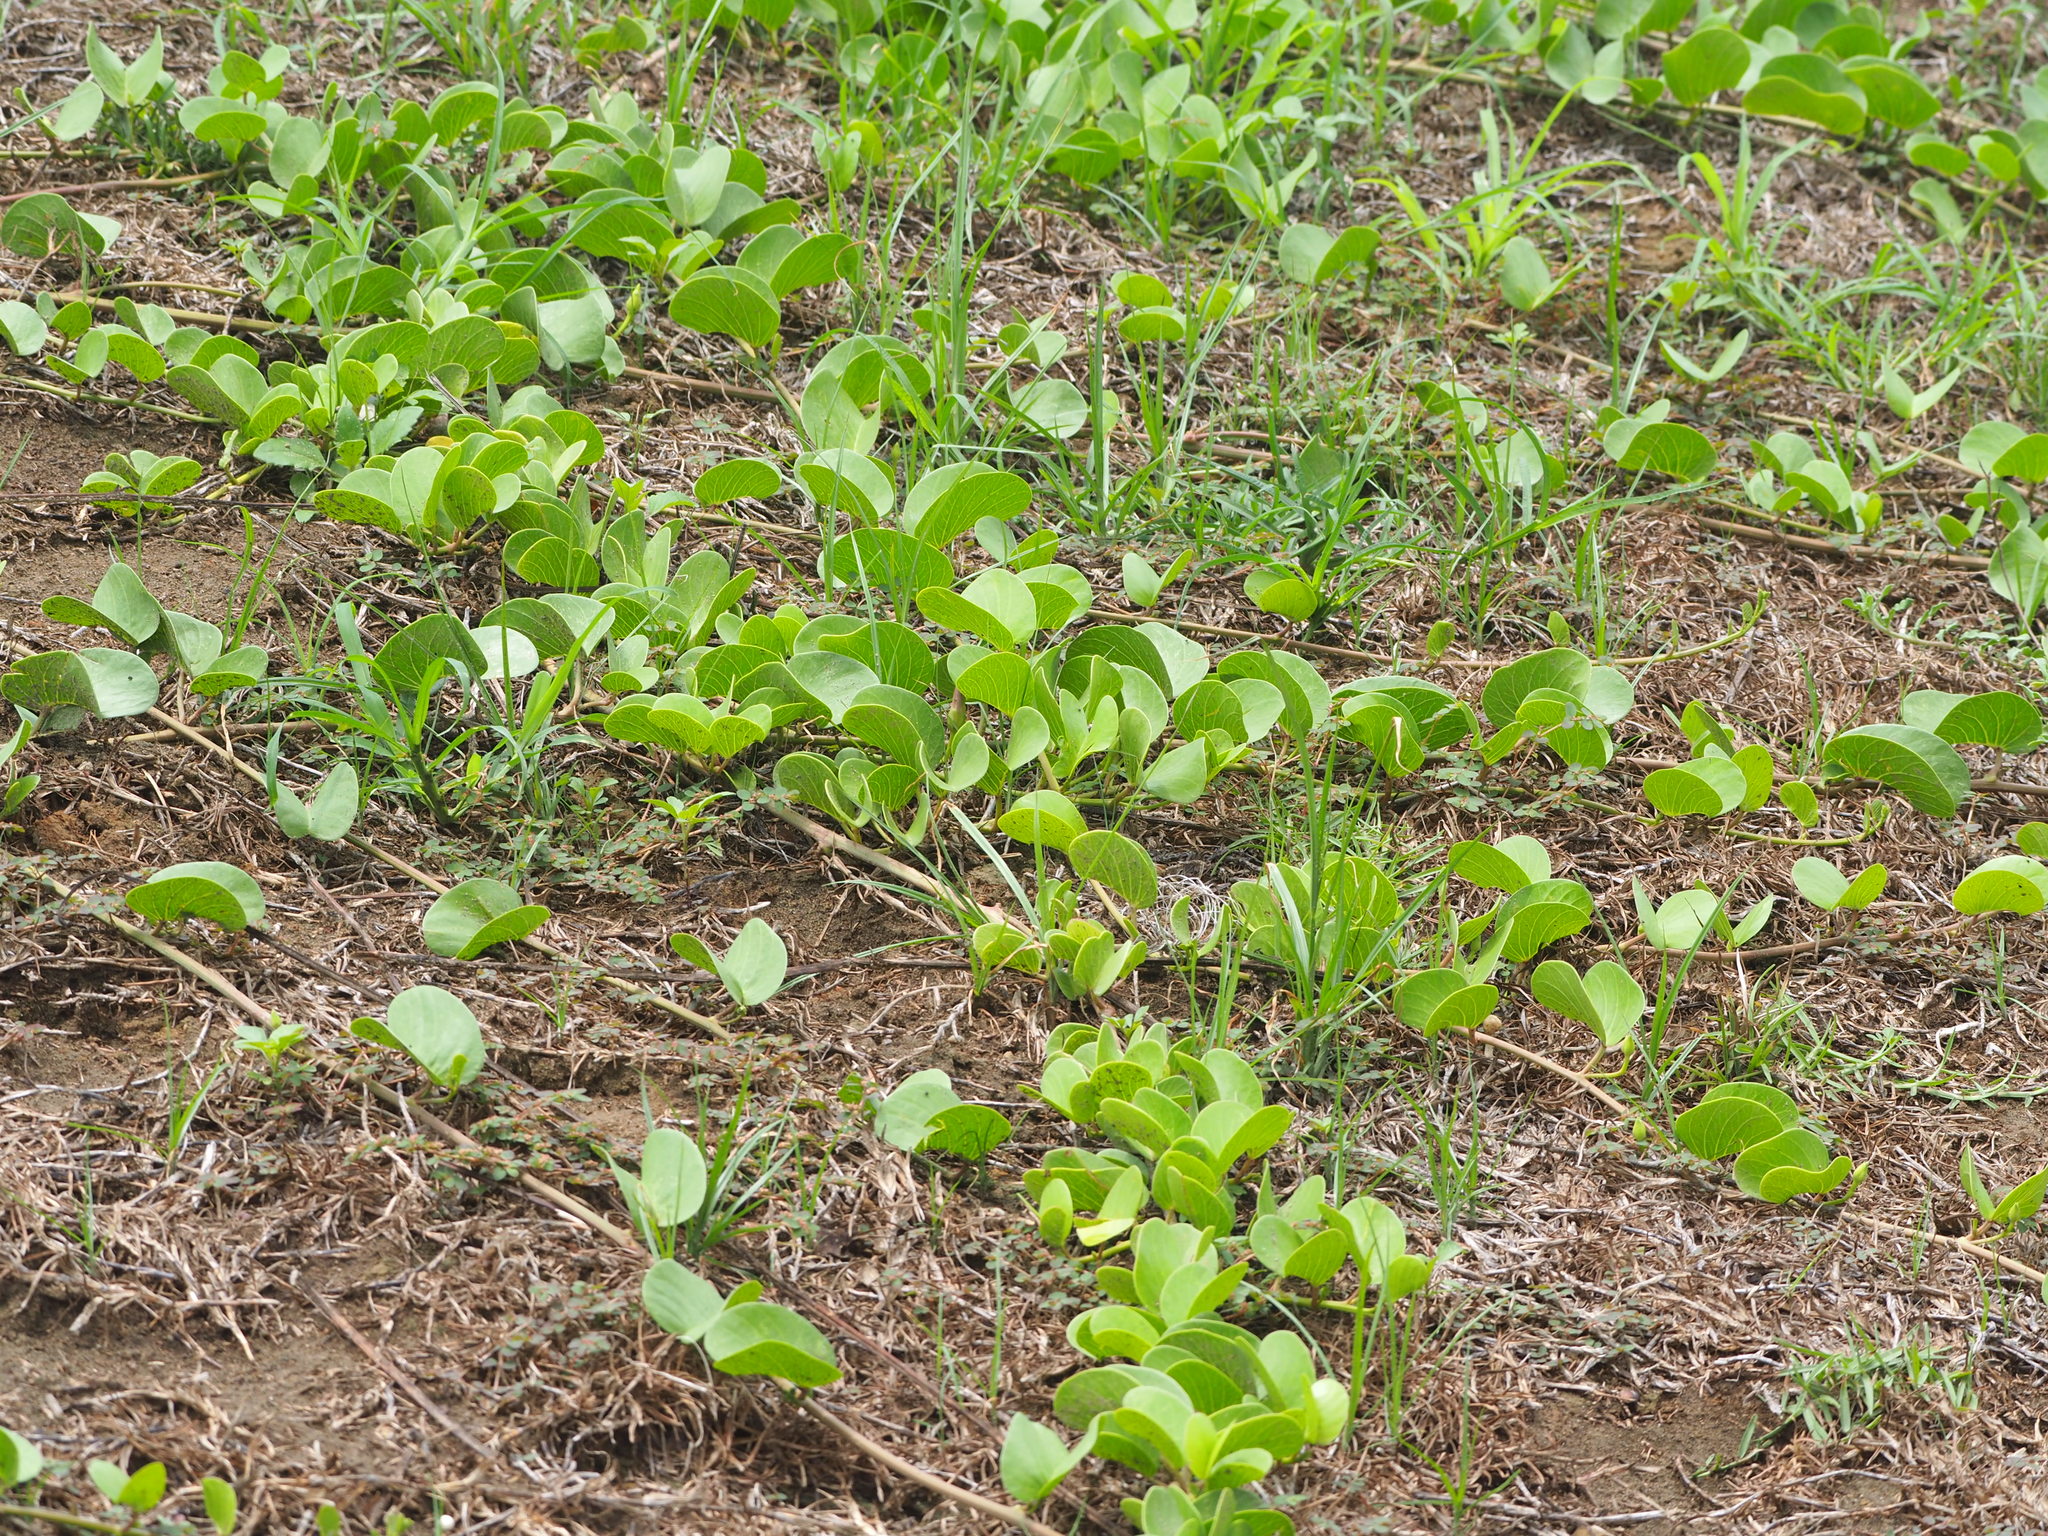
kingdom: Plantae
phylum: Tracheophyta
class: Magnoliopsida
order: Solanales
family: Convolvulaceae
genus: Ipomoea
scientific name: Ipomoea pes-caprae
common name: Beach morning glory
